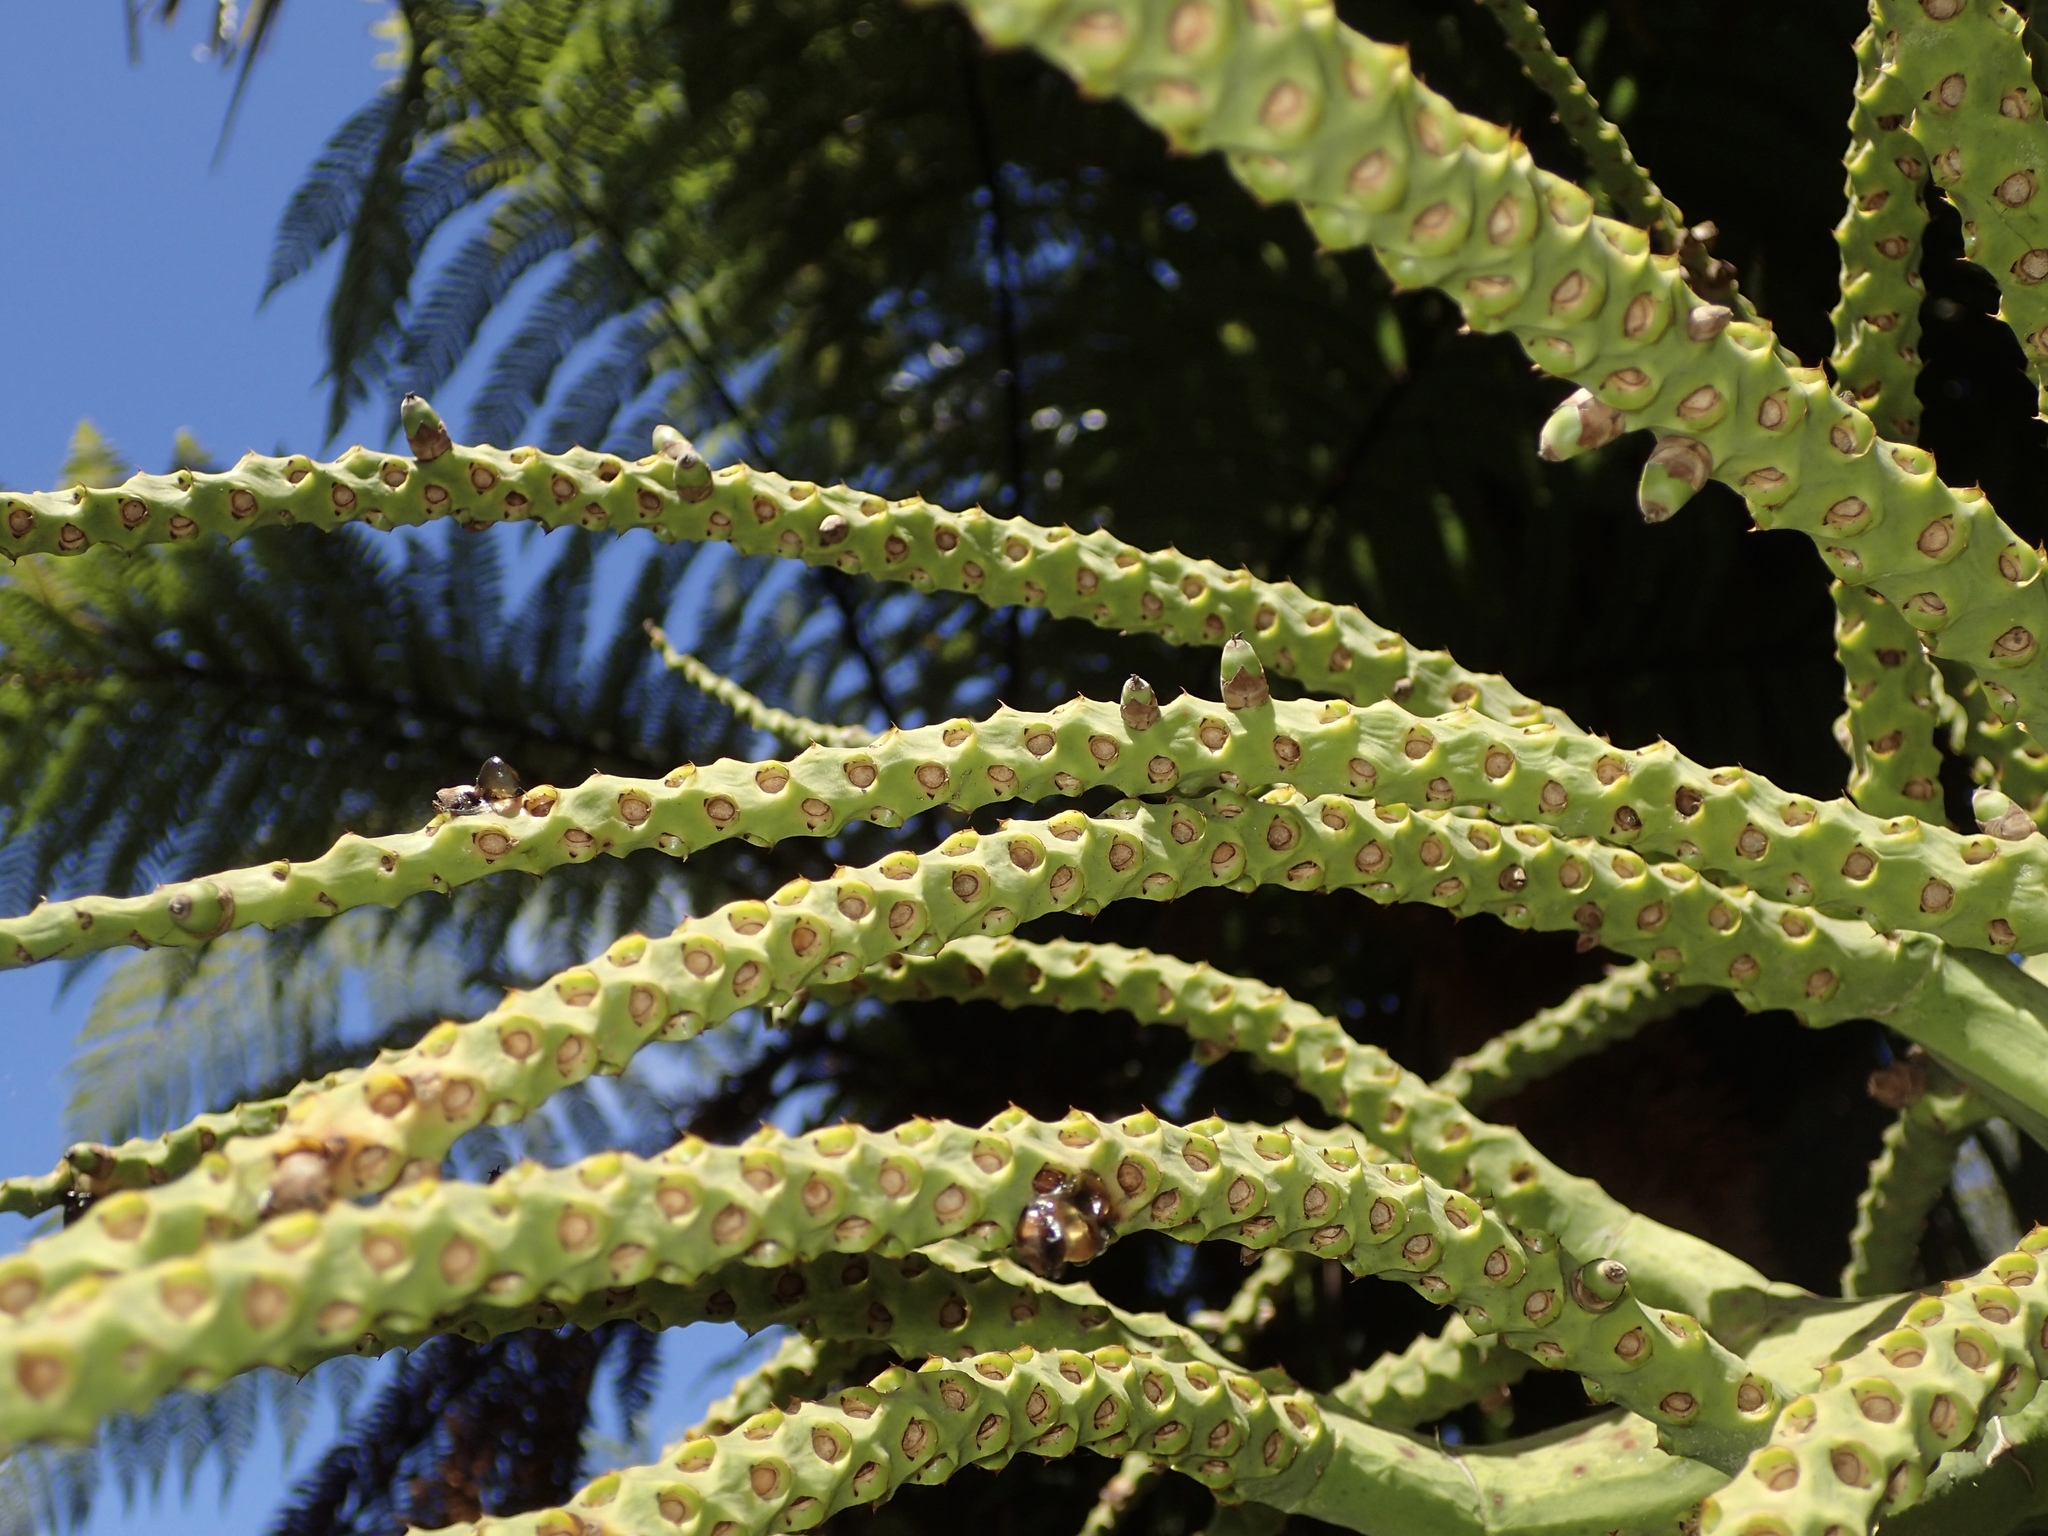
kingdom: Plantae
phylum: Tracheophyta
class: Liliopsida
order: Arecales
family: Arecaceae
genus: Rhopalostylis
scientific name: Rhopalostylis sapida
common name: Feather-duster palm
